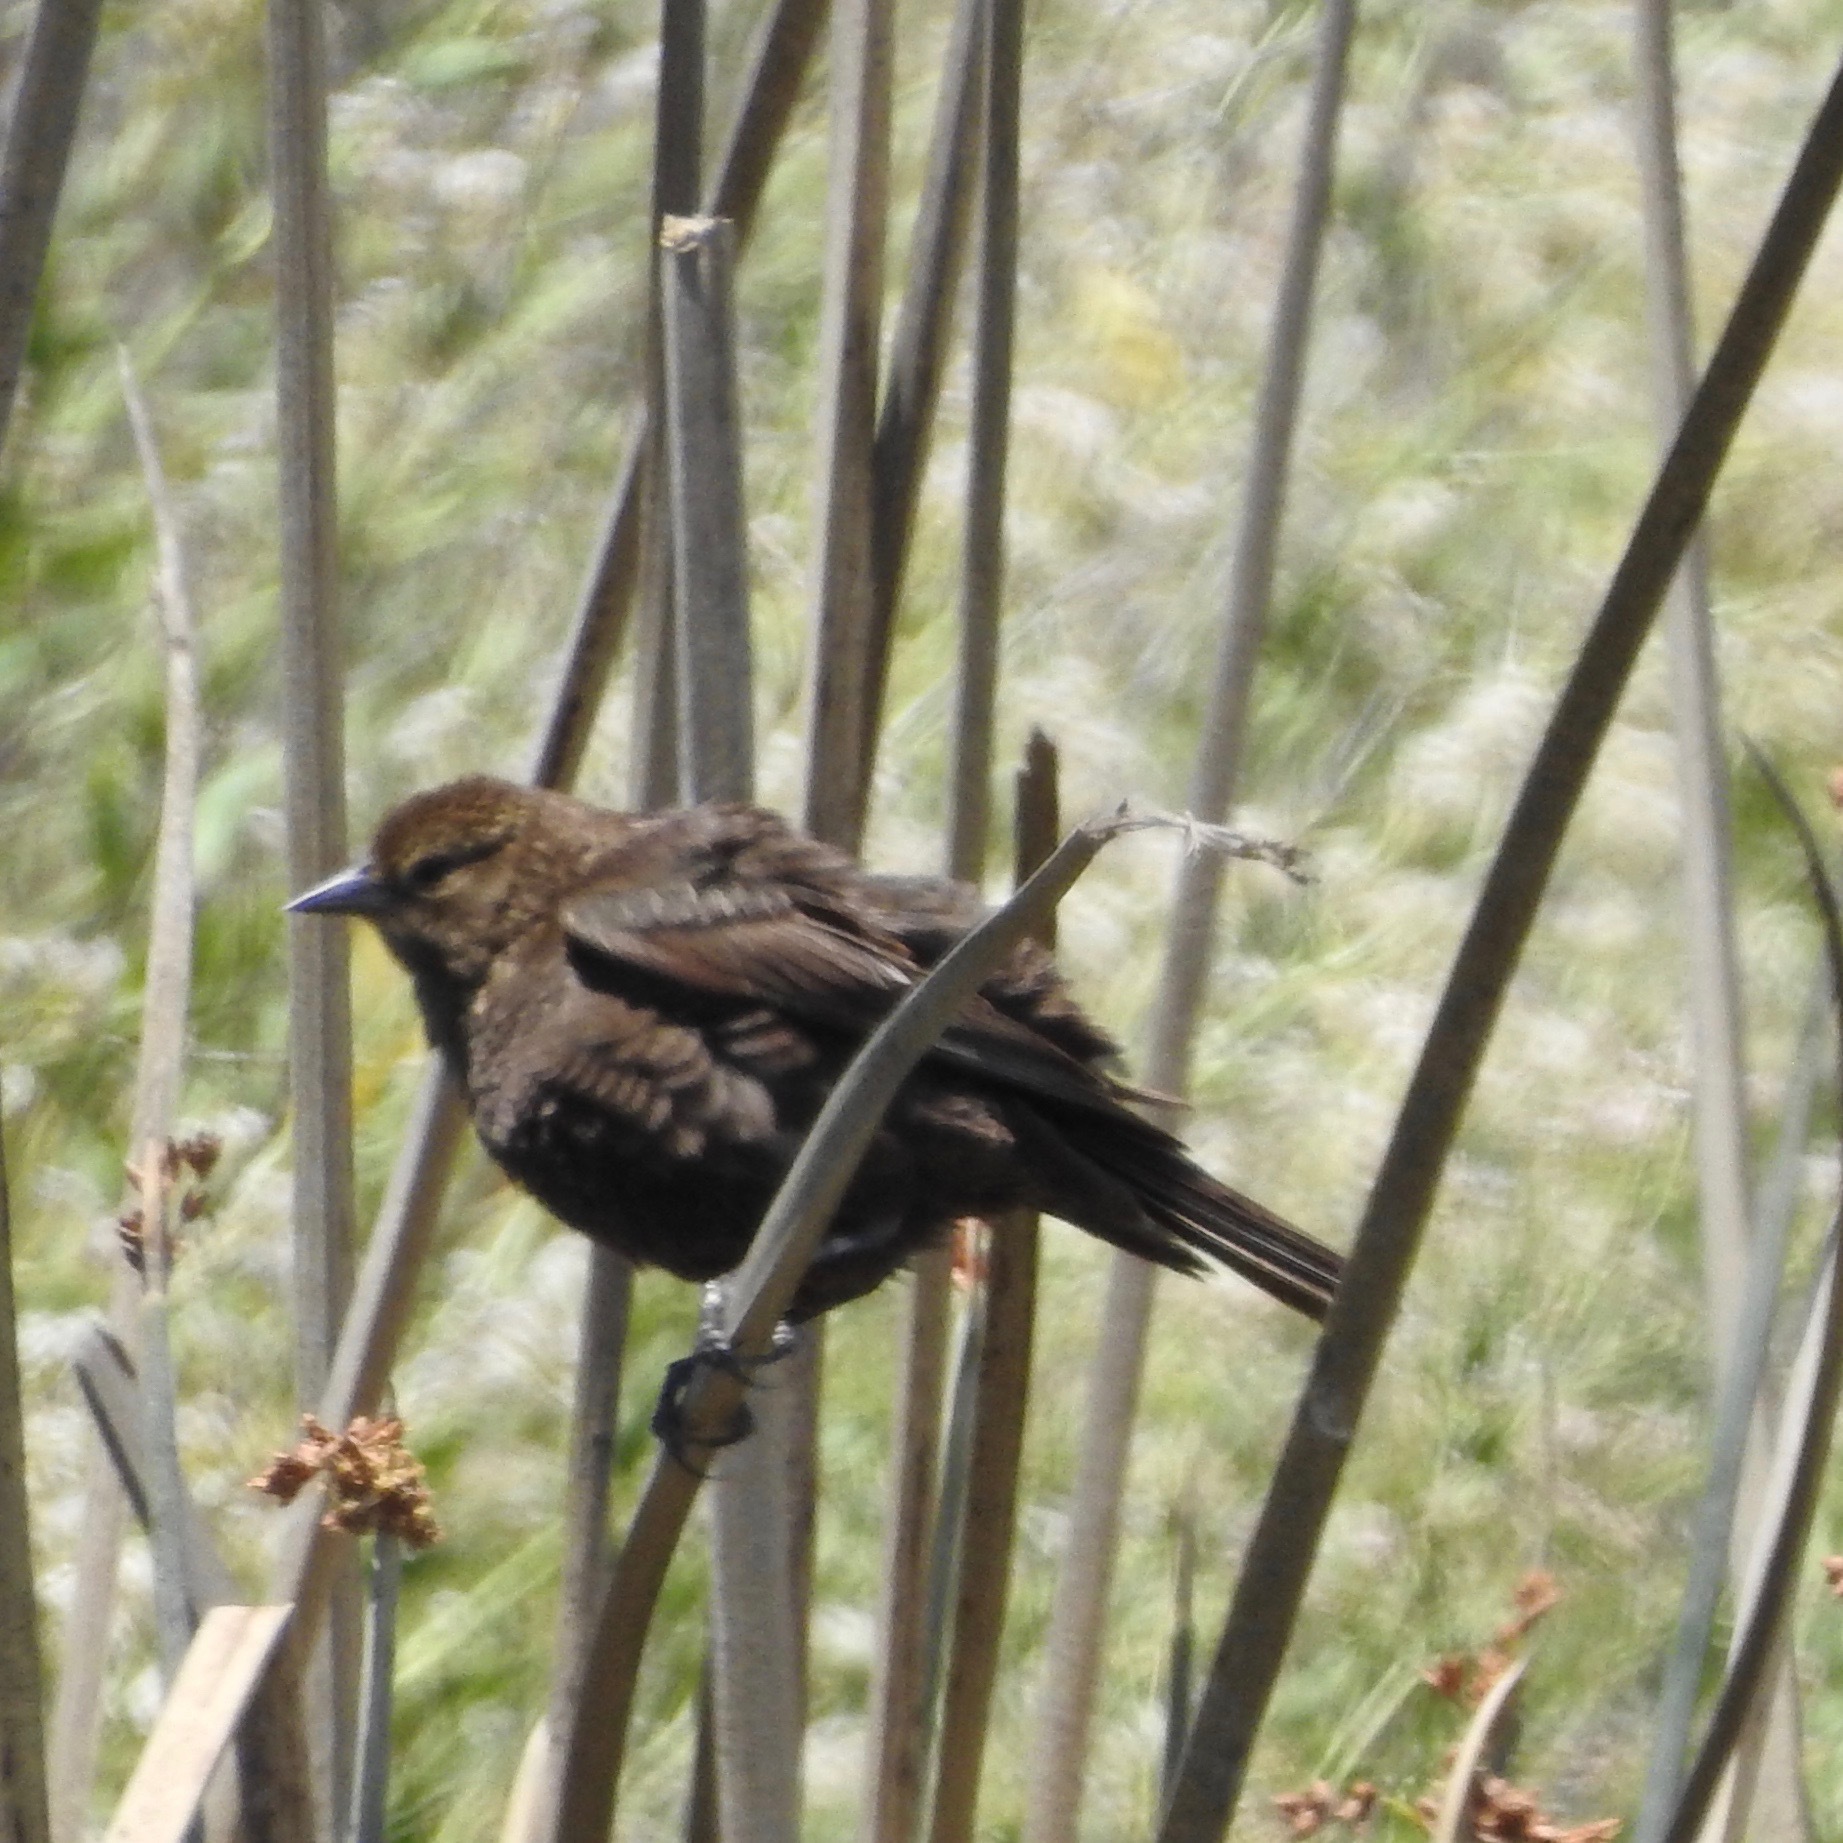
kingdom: Animalia
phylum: Chordata
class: Aves
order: Passeriformes
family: Icteridae
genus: Agelaius
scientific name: Agelaius phoeniceus
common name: Red-winged blackbird
